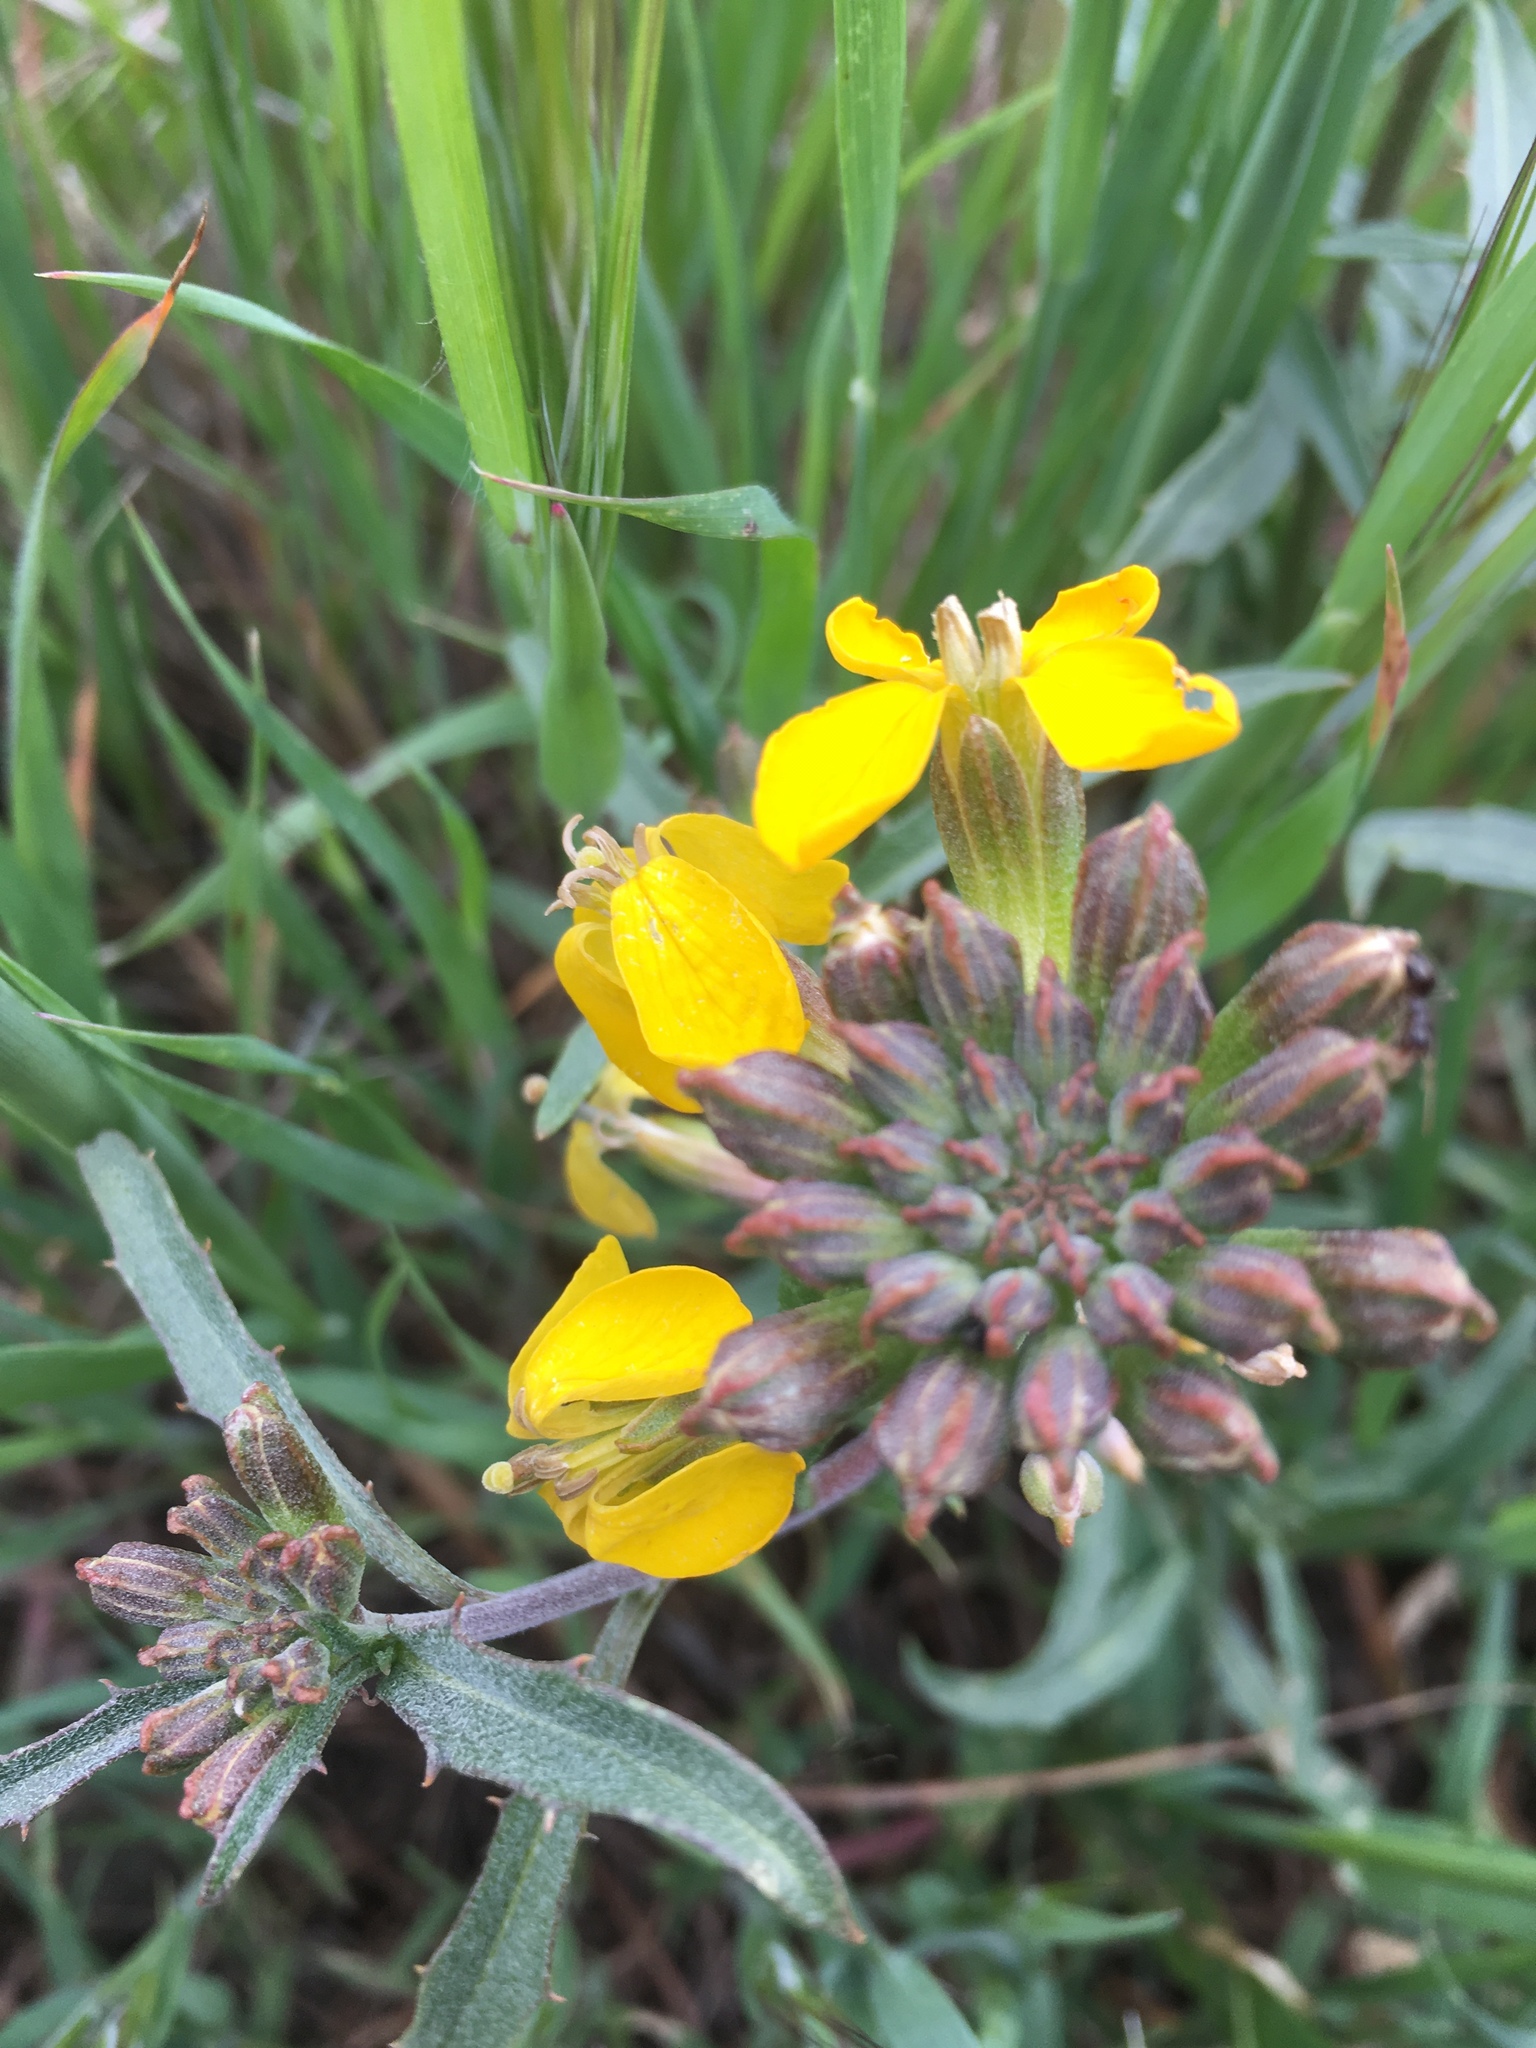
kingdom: Plantae
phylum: Tracheophyta
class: Magnoliopsida
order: Brassicales
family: Brassicaceae
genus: Erysimum
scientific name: Erysimum capitatum
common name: Western wallflower
